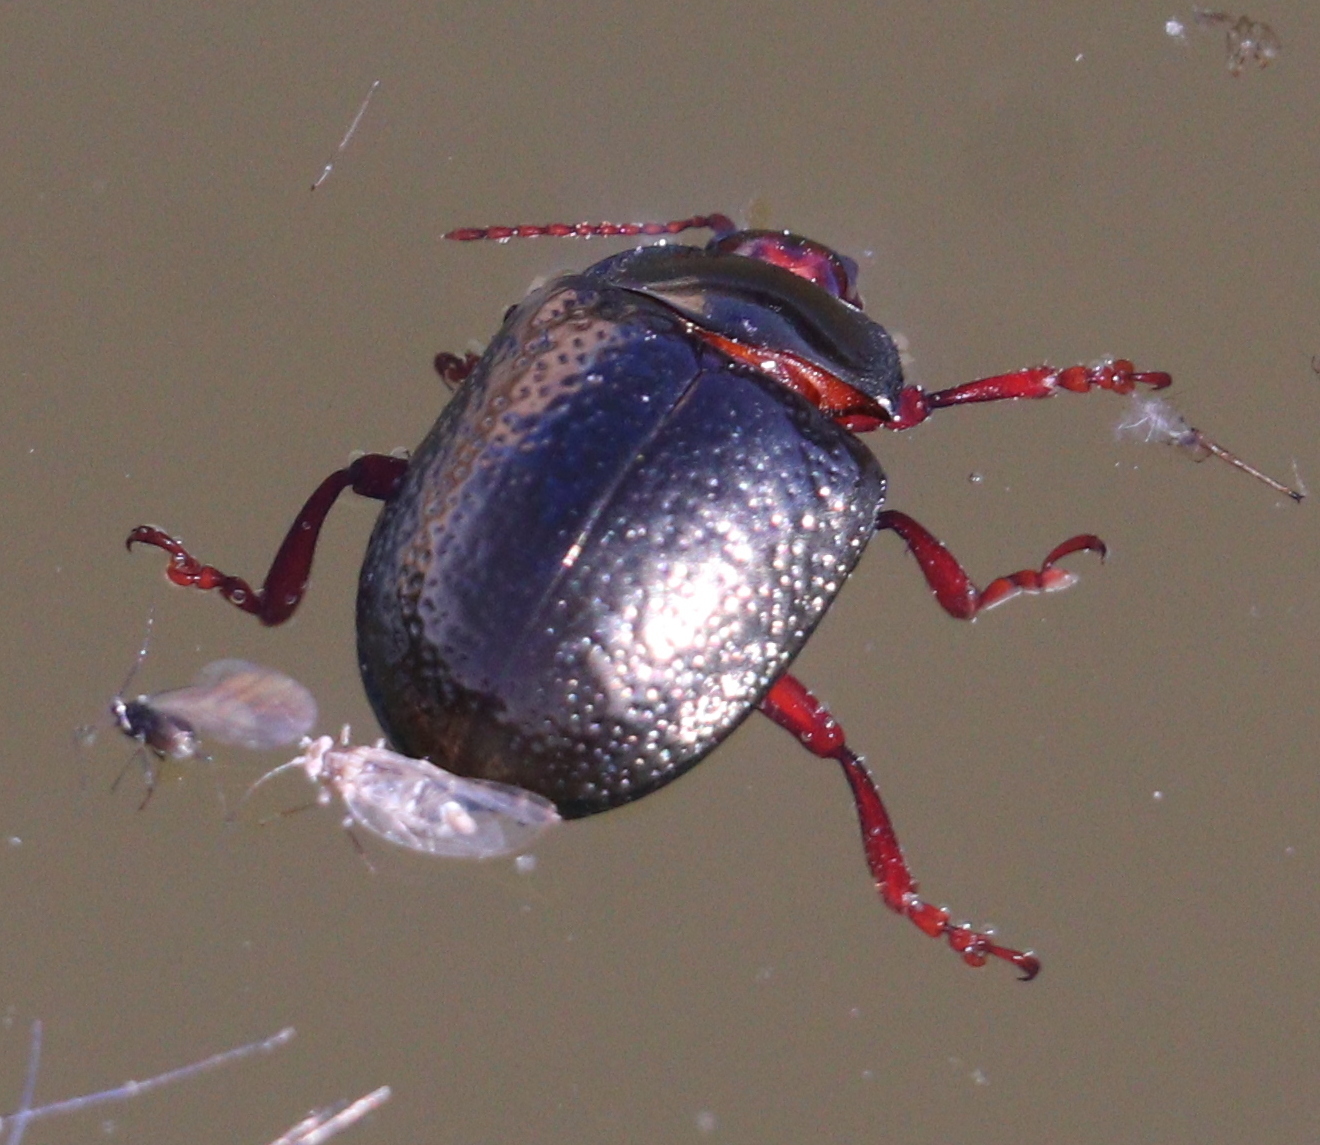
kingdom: Animalia
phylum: Arthropoda
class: Insecta
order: Coleoptera
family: Chrysomelidae
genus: Chrysolina
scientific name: Chrysolina bankii
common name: Leaf beetle
